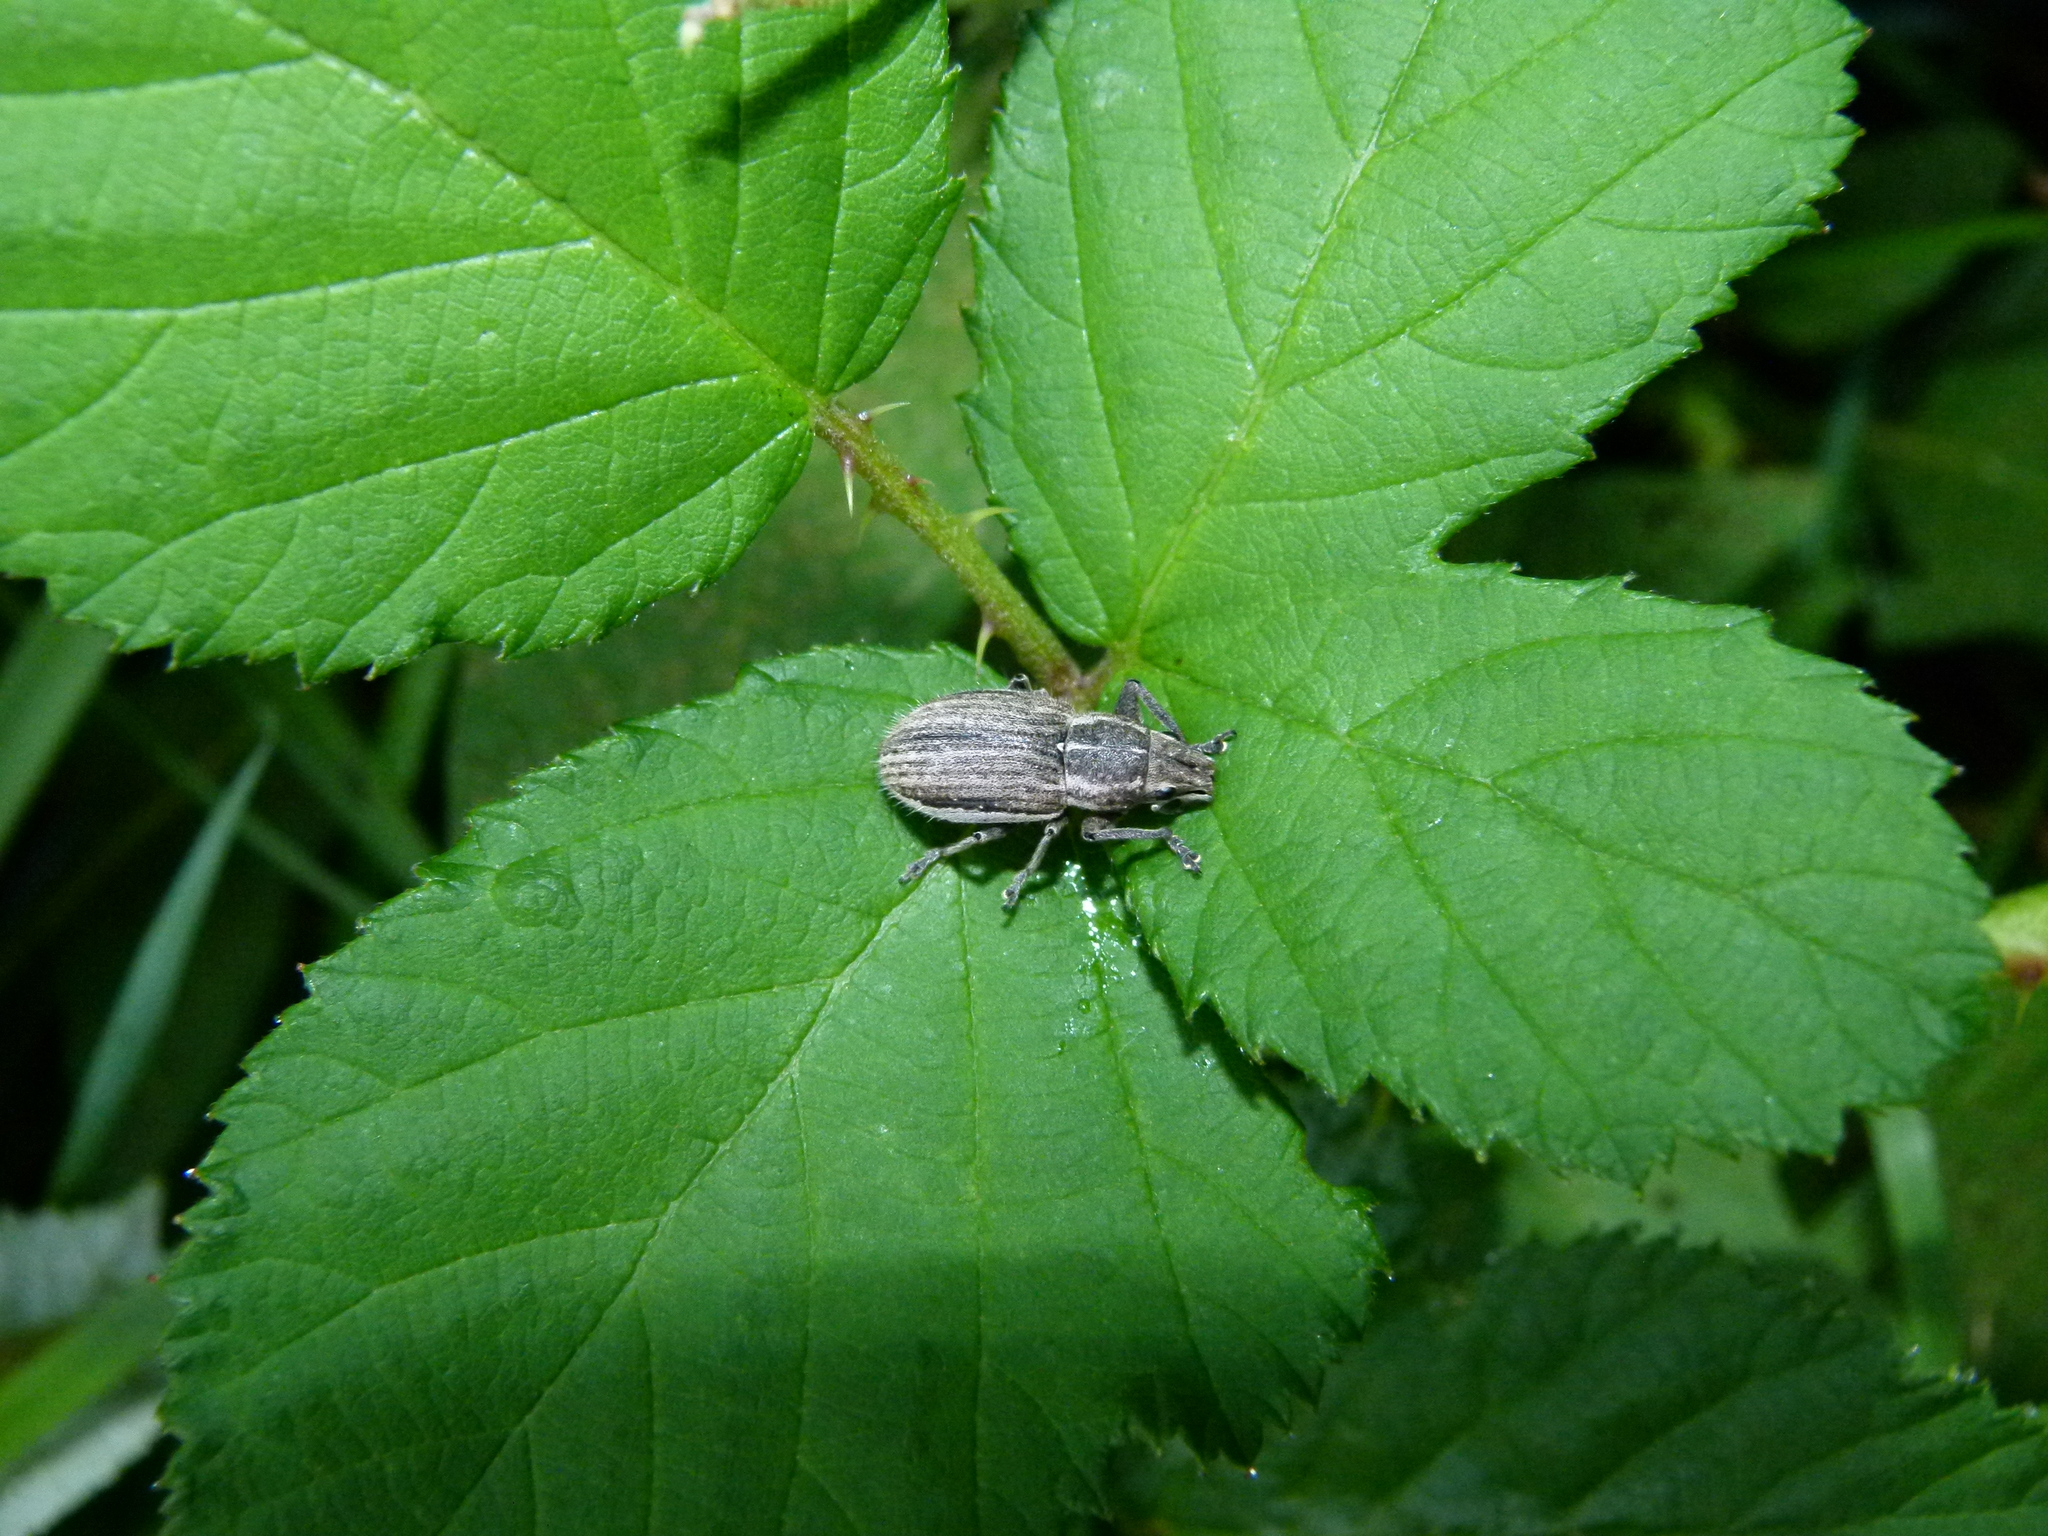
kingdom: Animalia
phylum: Arthropoda
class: Insecta
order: Coleoptera
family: Curculionidae
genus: Naupactus
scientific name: Naupactus leucoloma
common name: Whitefringed beetle
